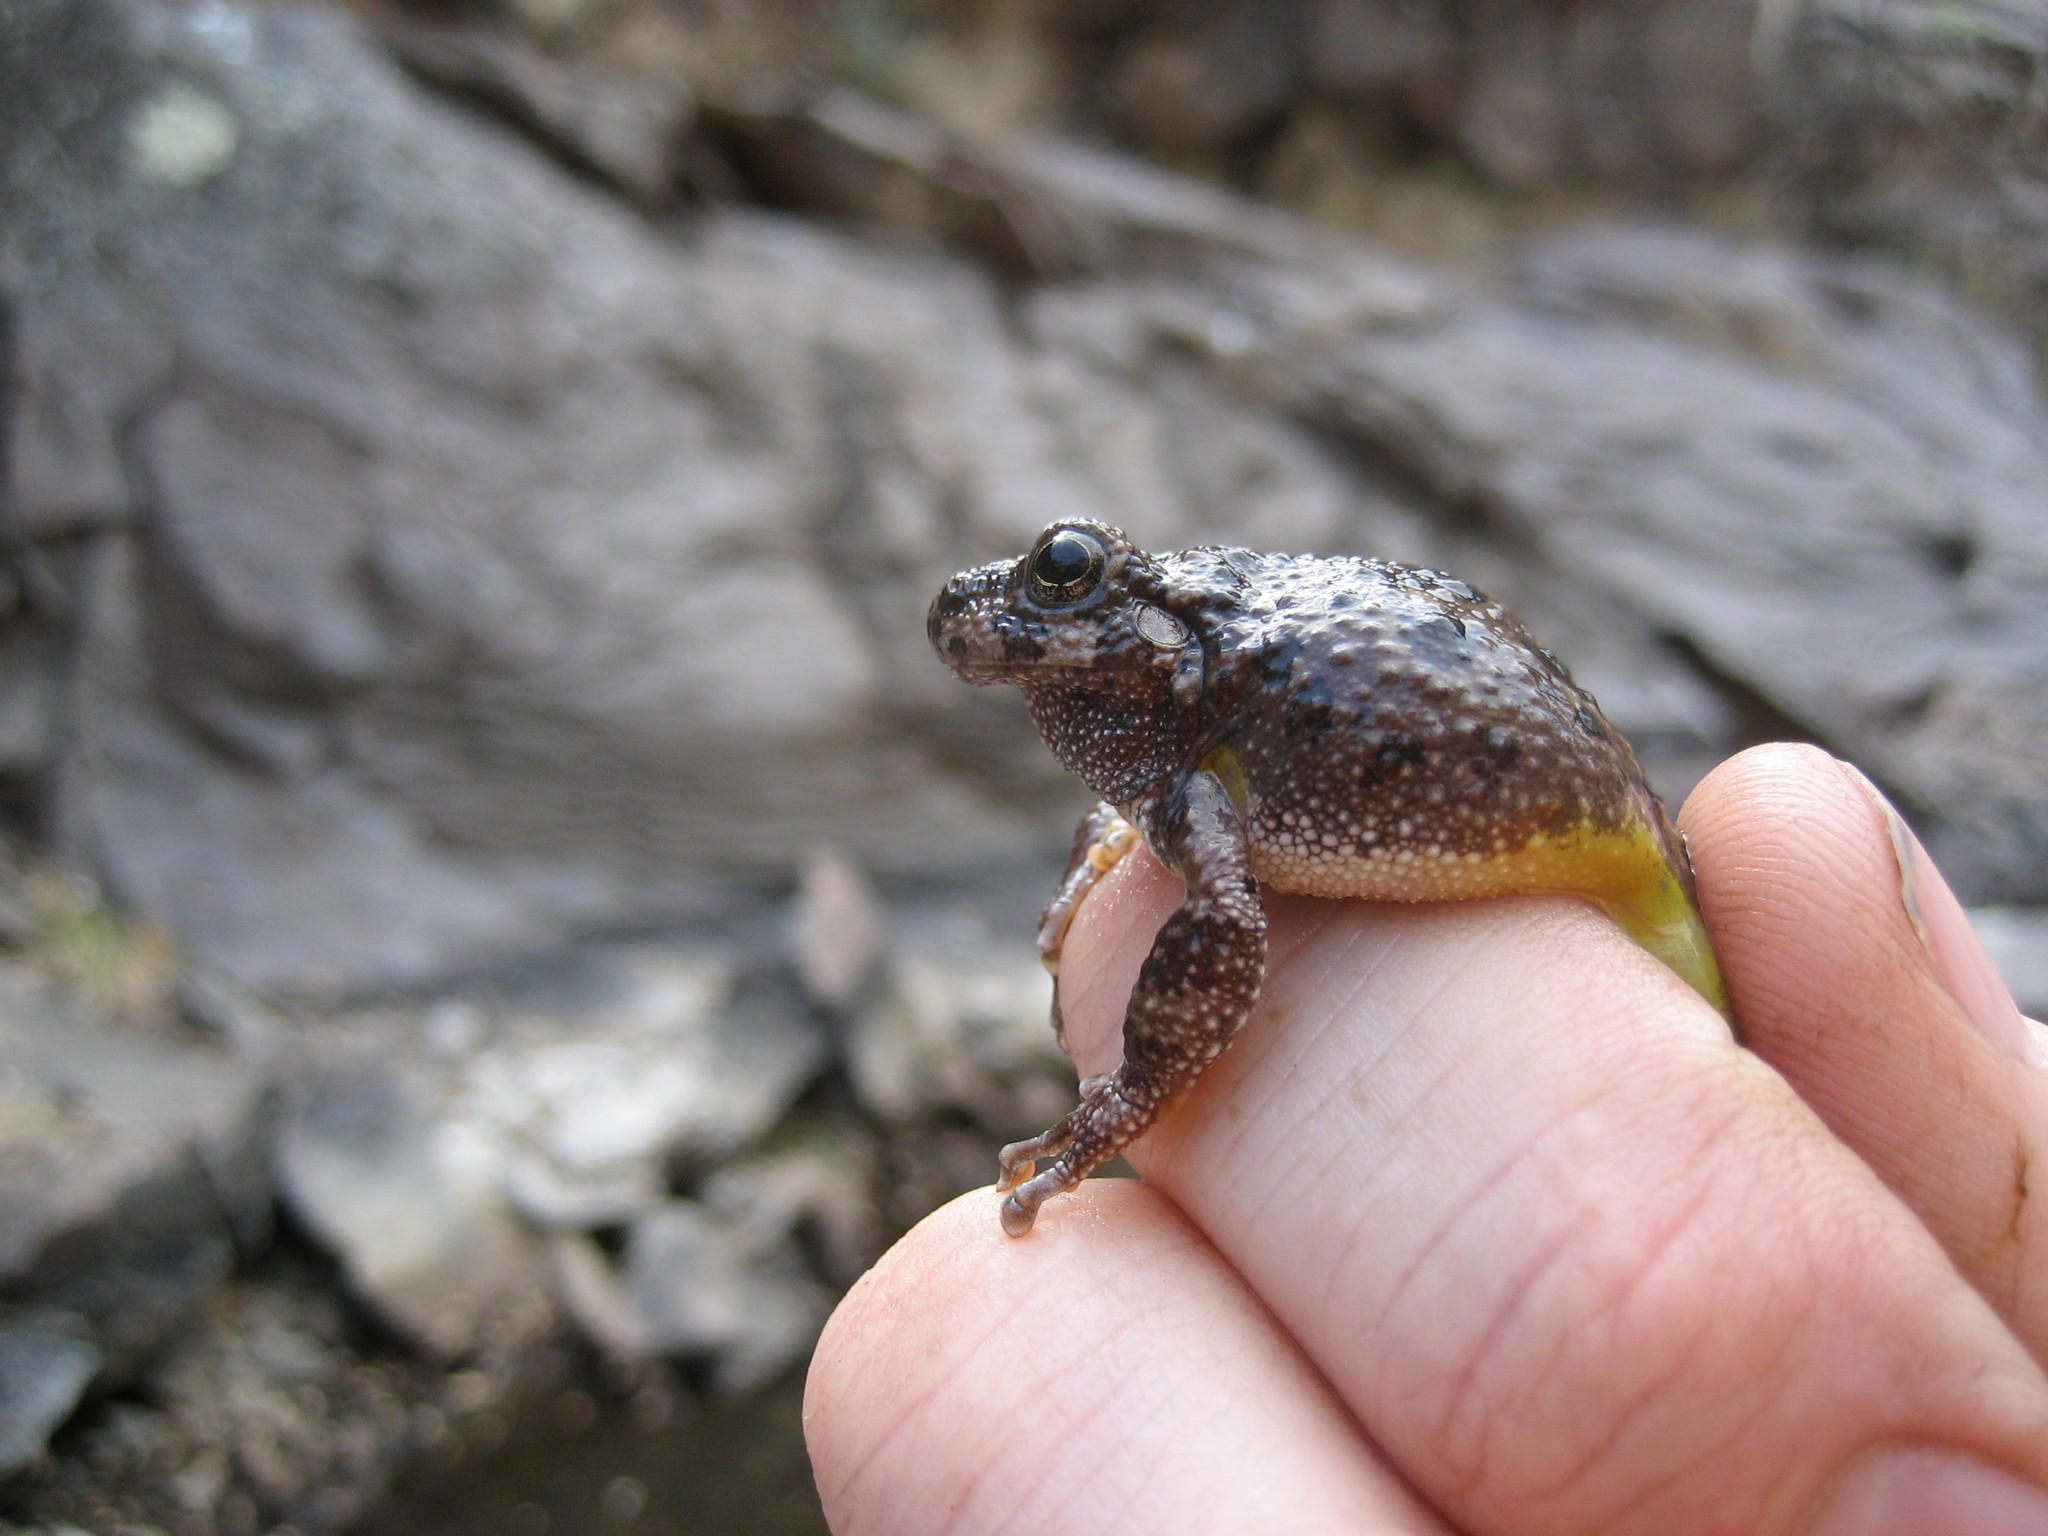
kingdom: Animalia
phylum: Chordata
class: Amphibia
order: Anura
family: Hylidae
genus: Dryophytes
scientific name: Dryophytes arenicolor
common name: Canyon treefrog
